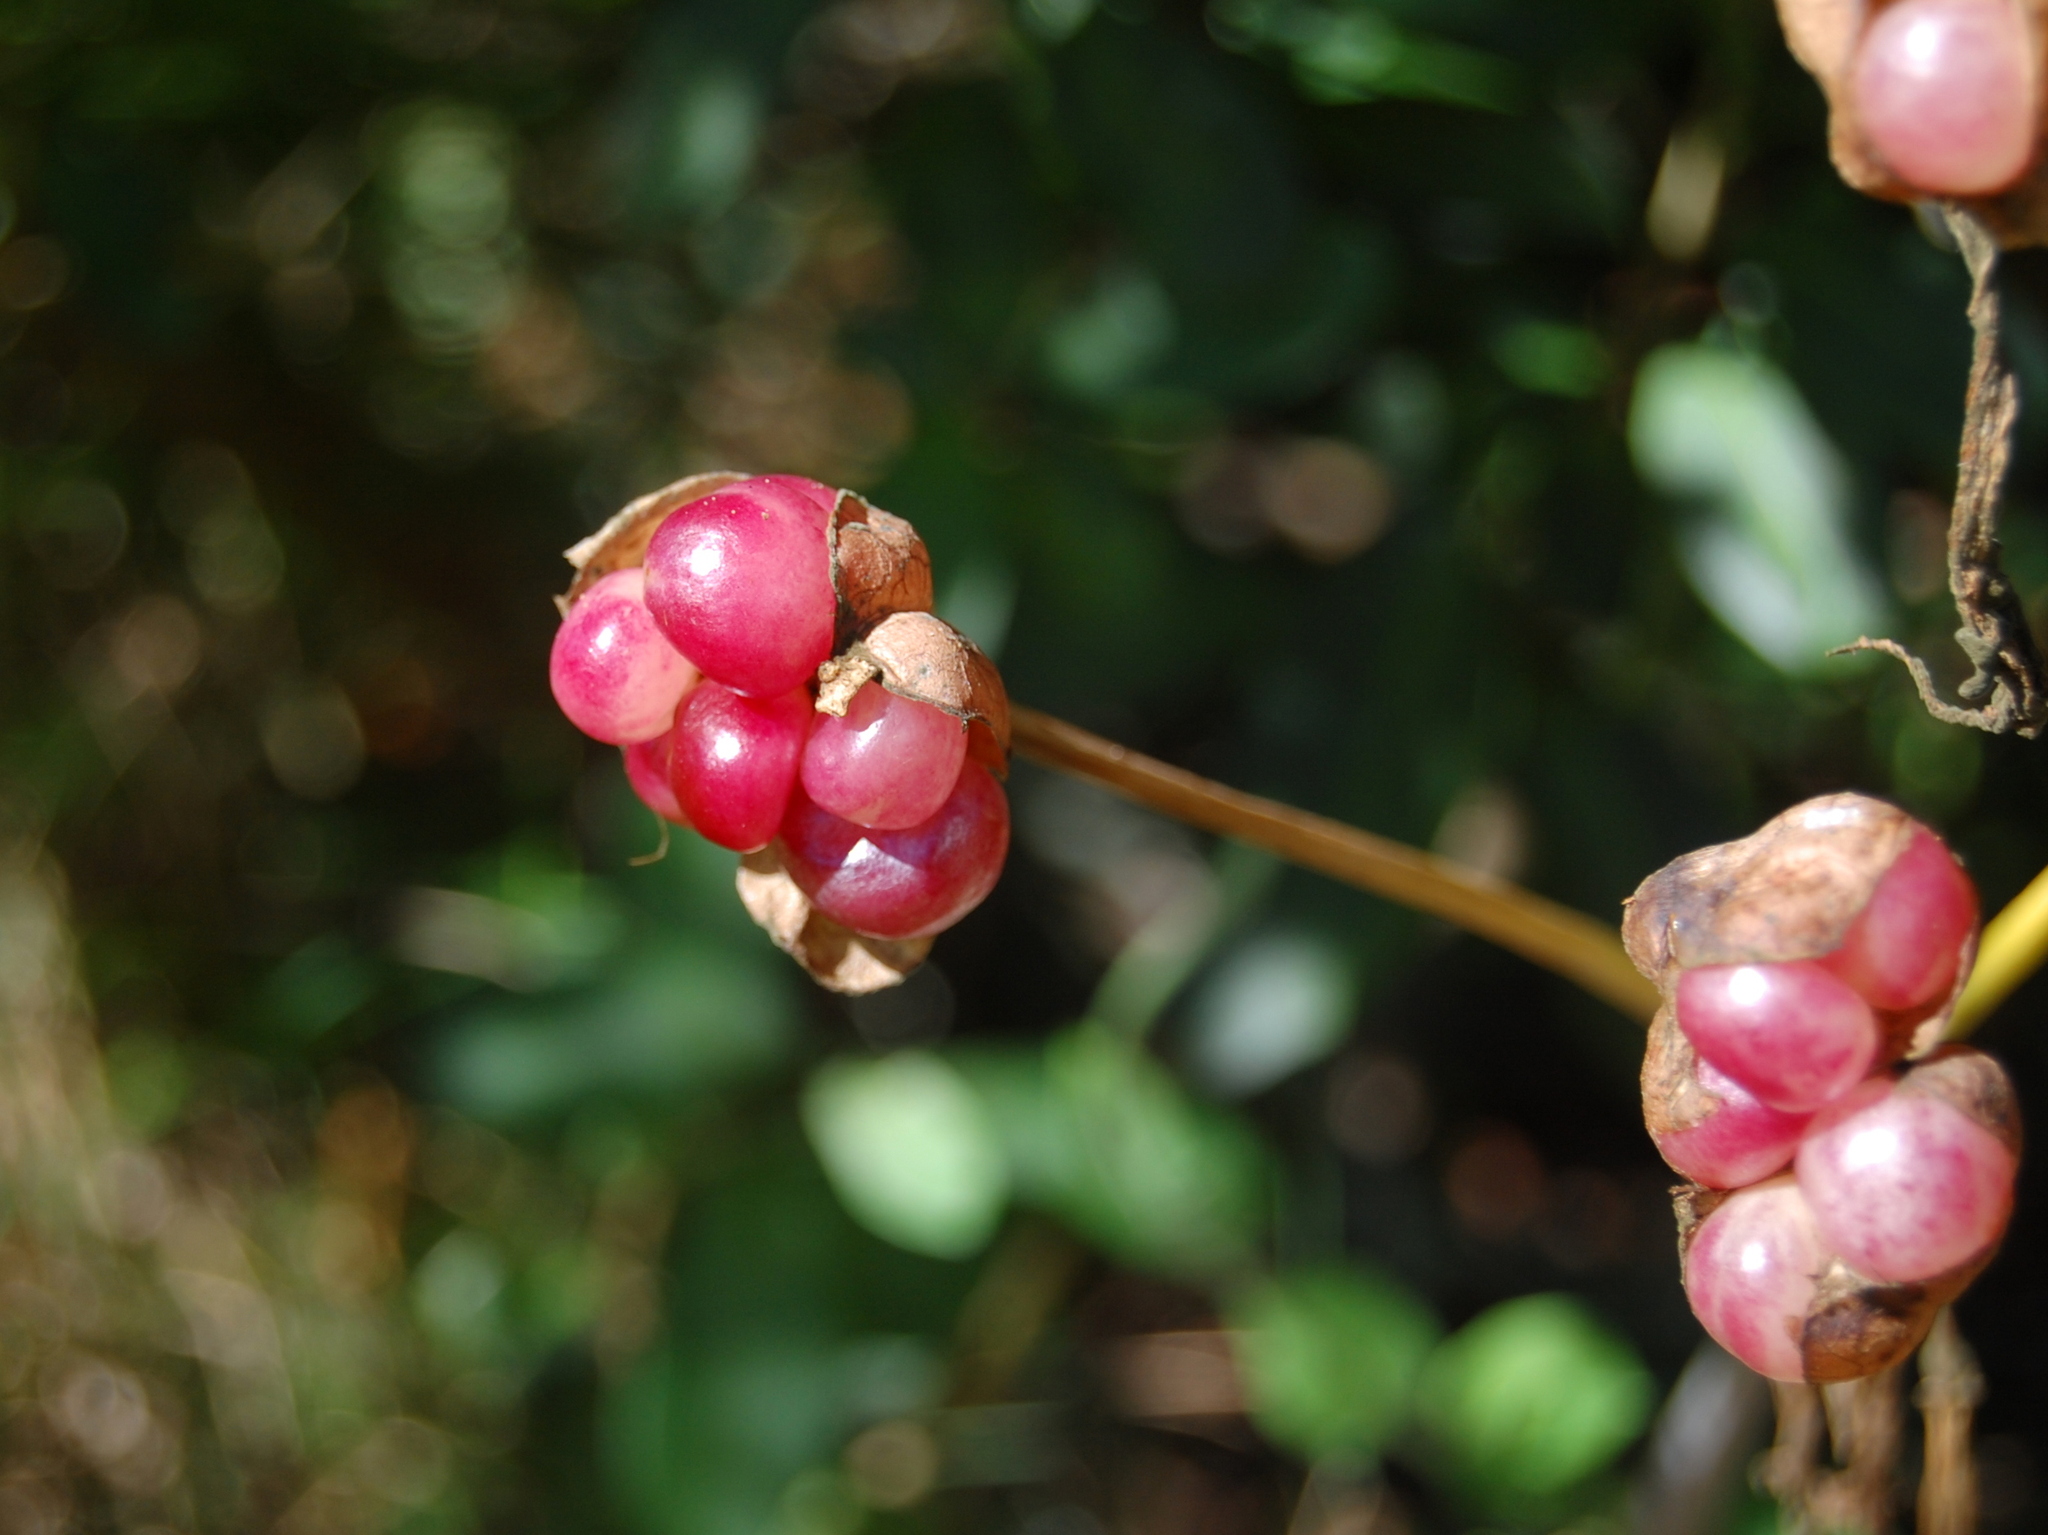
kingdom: Plantae
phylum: Tracheophyta
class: Liliopsida
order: Asparagales
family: Amaryllidaceae
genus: Amaryllis
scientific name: Amaryllis belladonna
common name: Jersey lily
